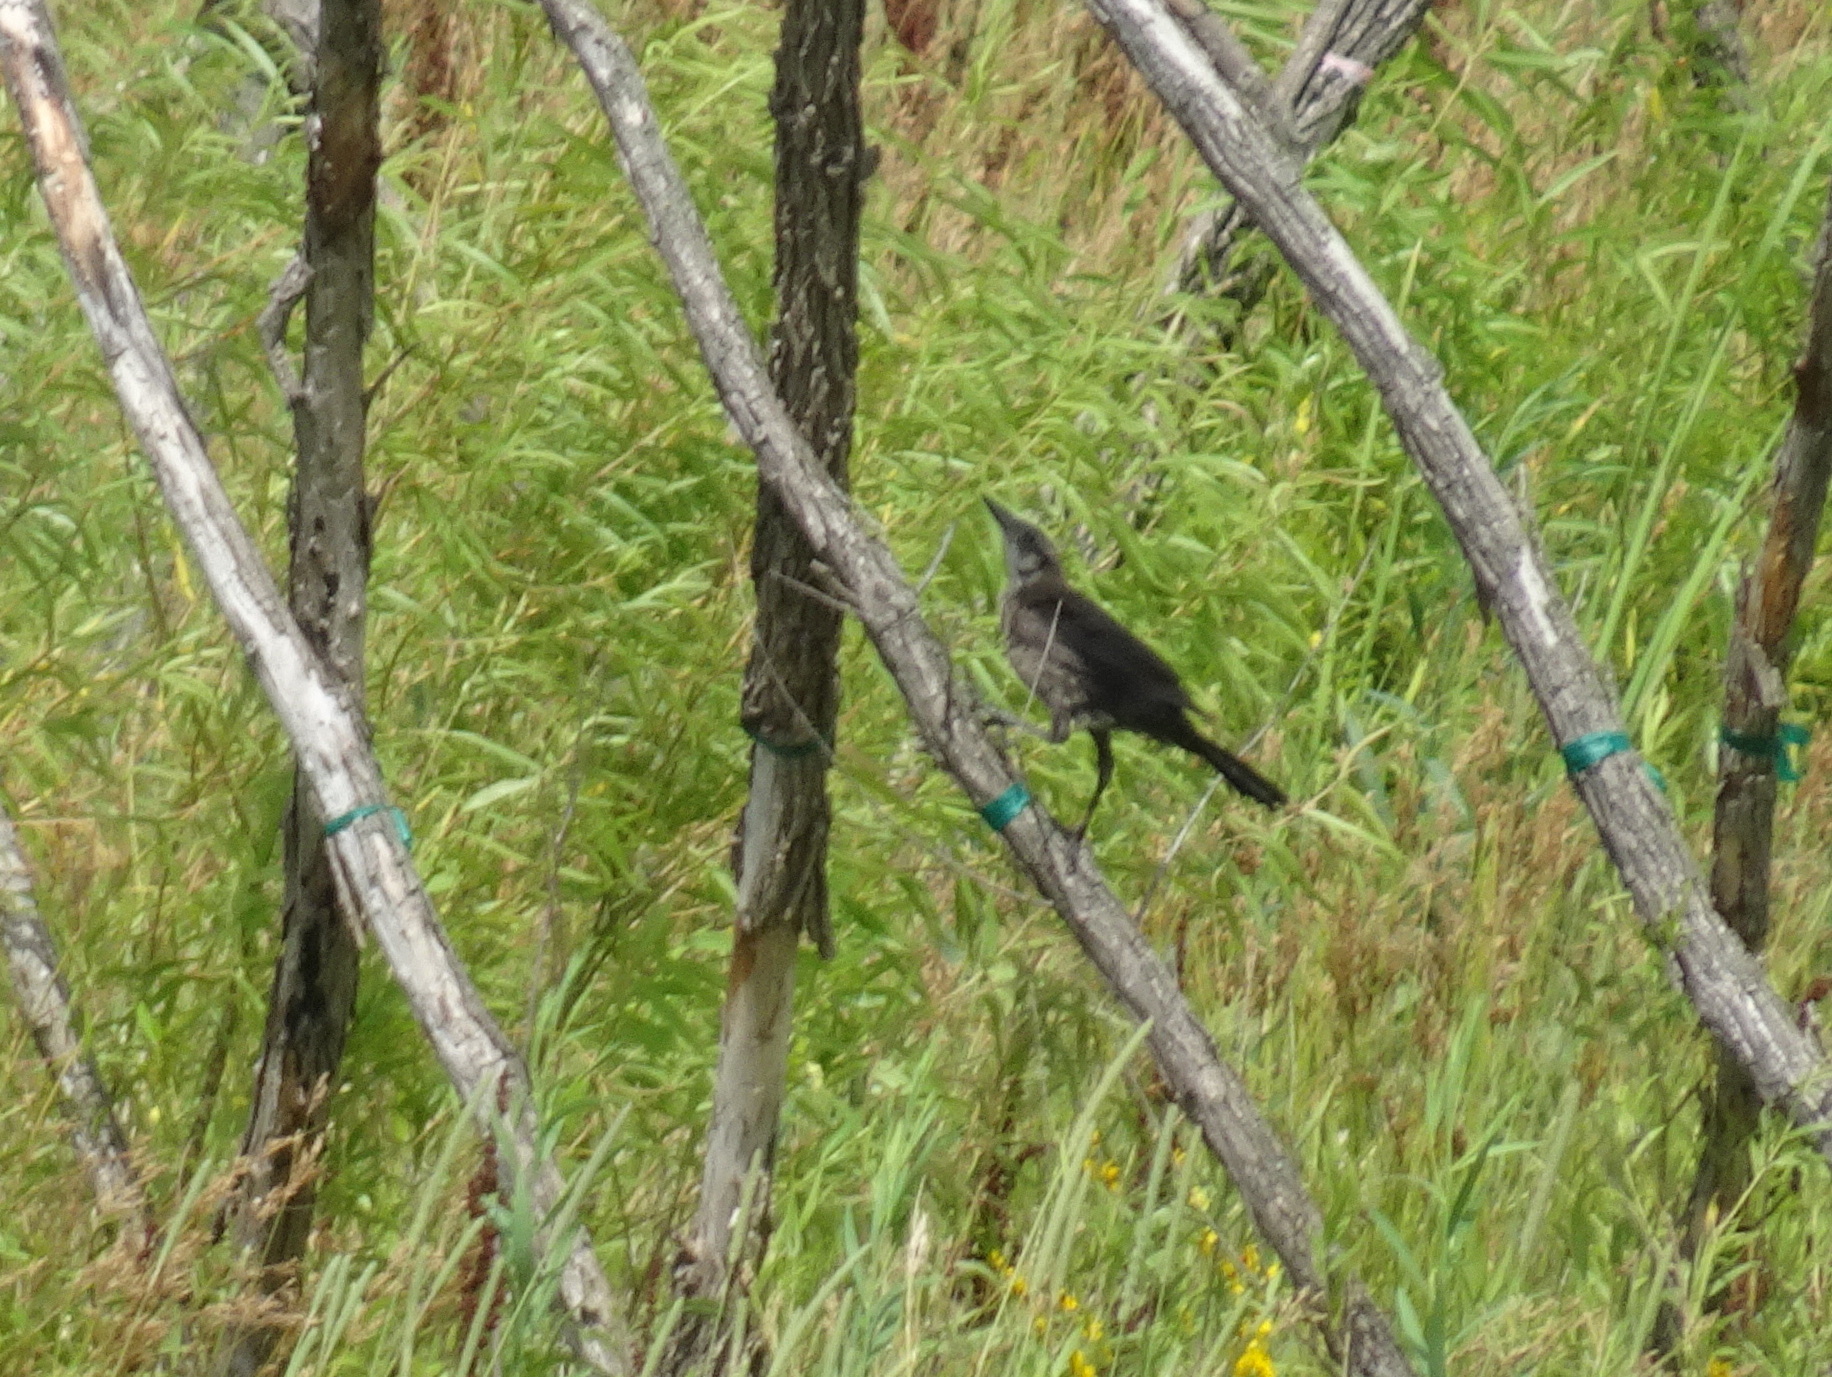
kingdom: Animalia
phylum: Chordata
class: Aves
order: Passeriformes
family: Icteridae
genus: Quiscalus
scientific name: Quiscalus mexicanus
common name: Great-tailed grackle
